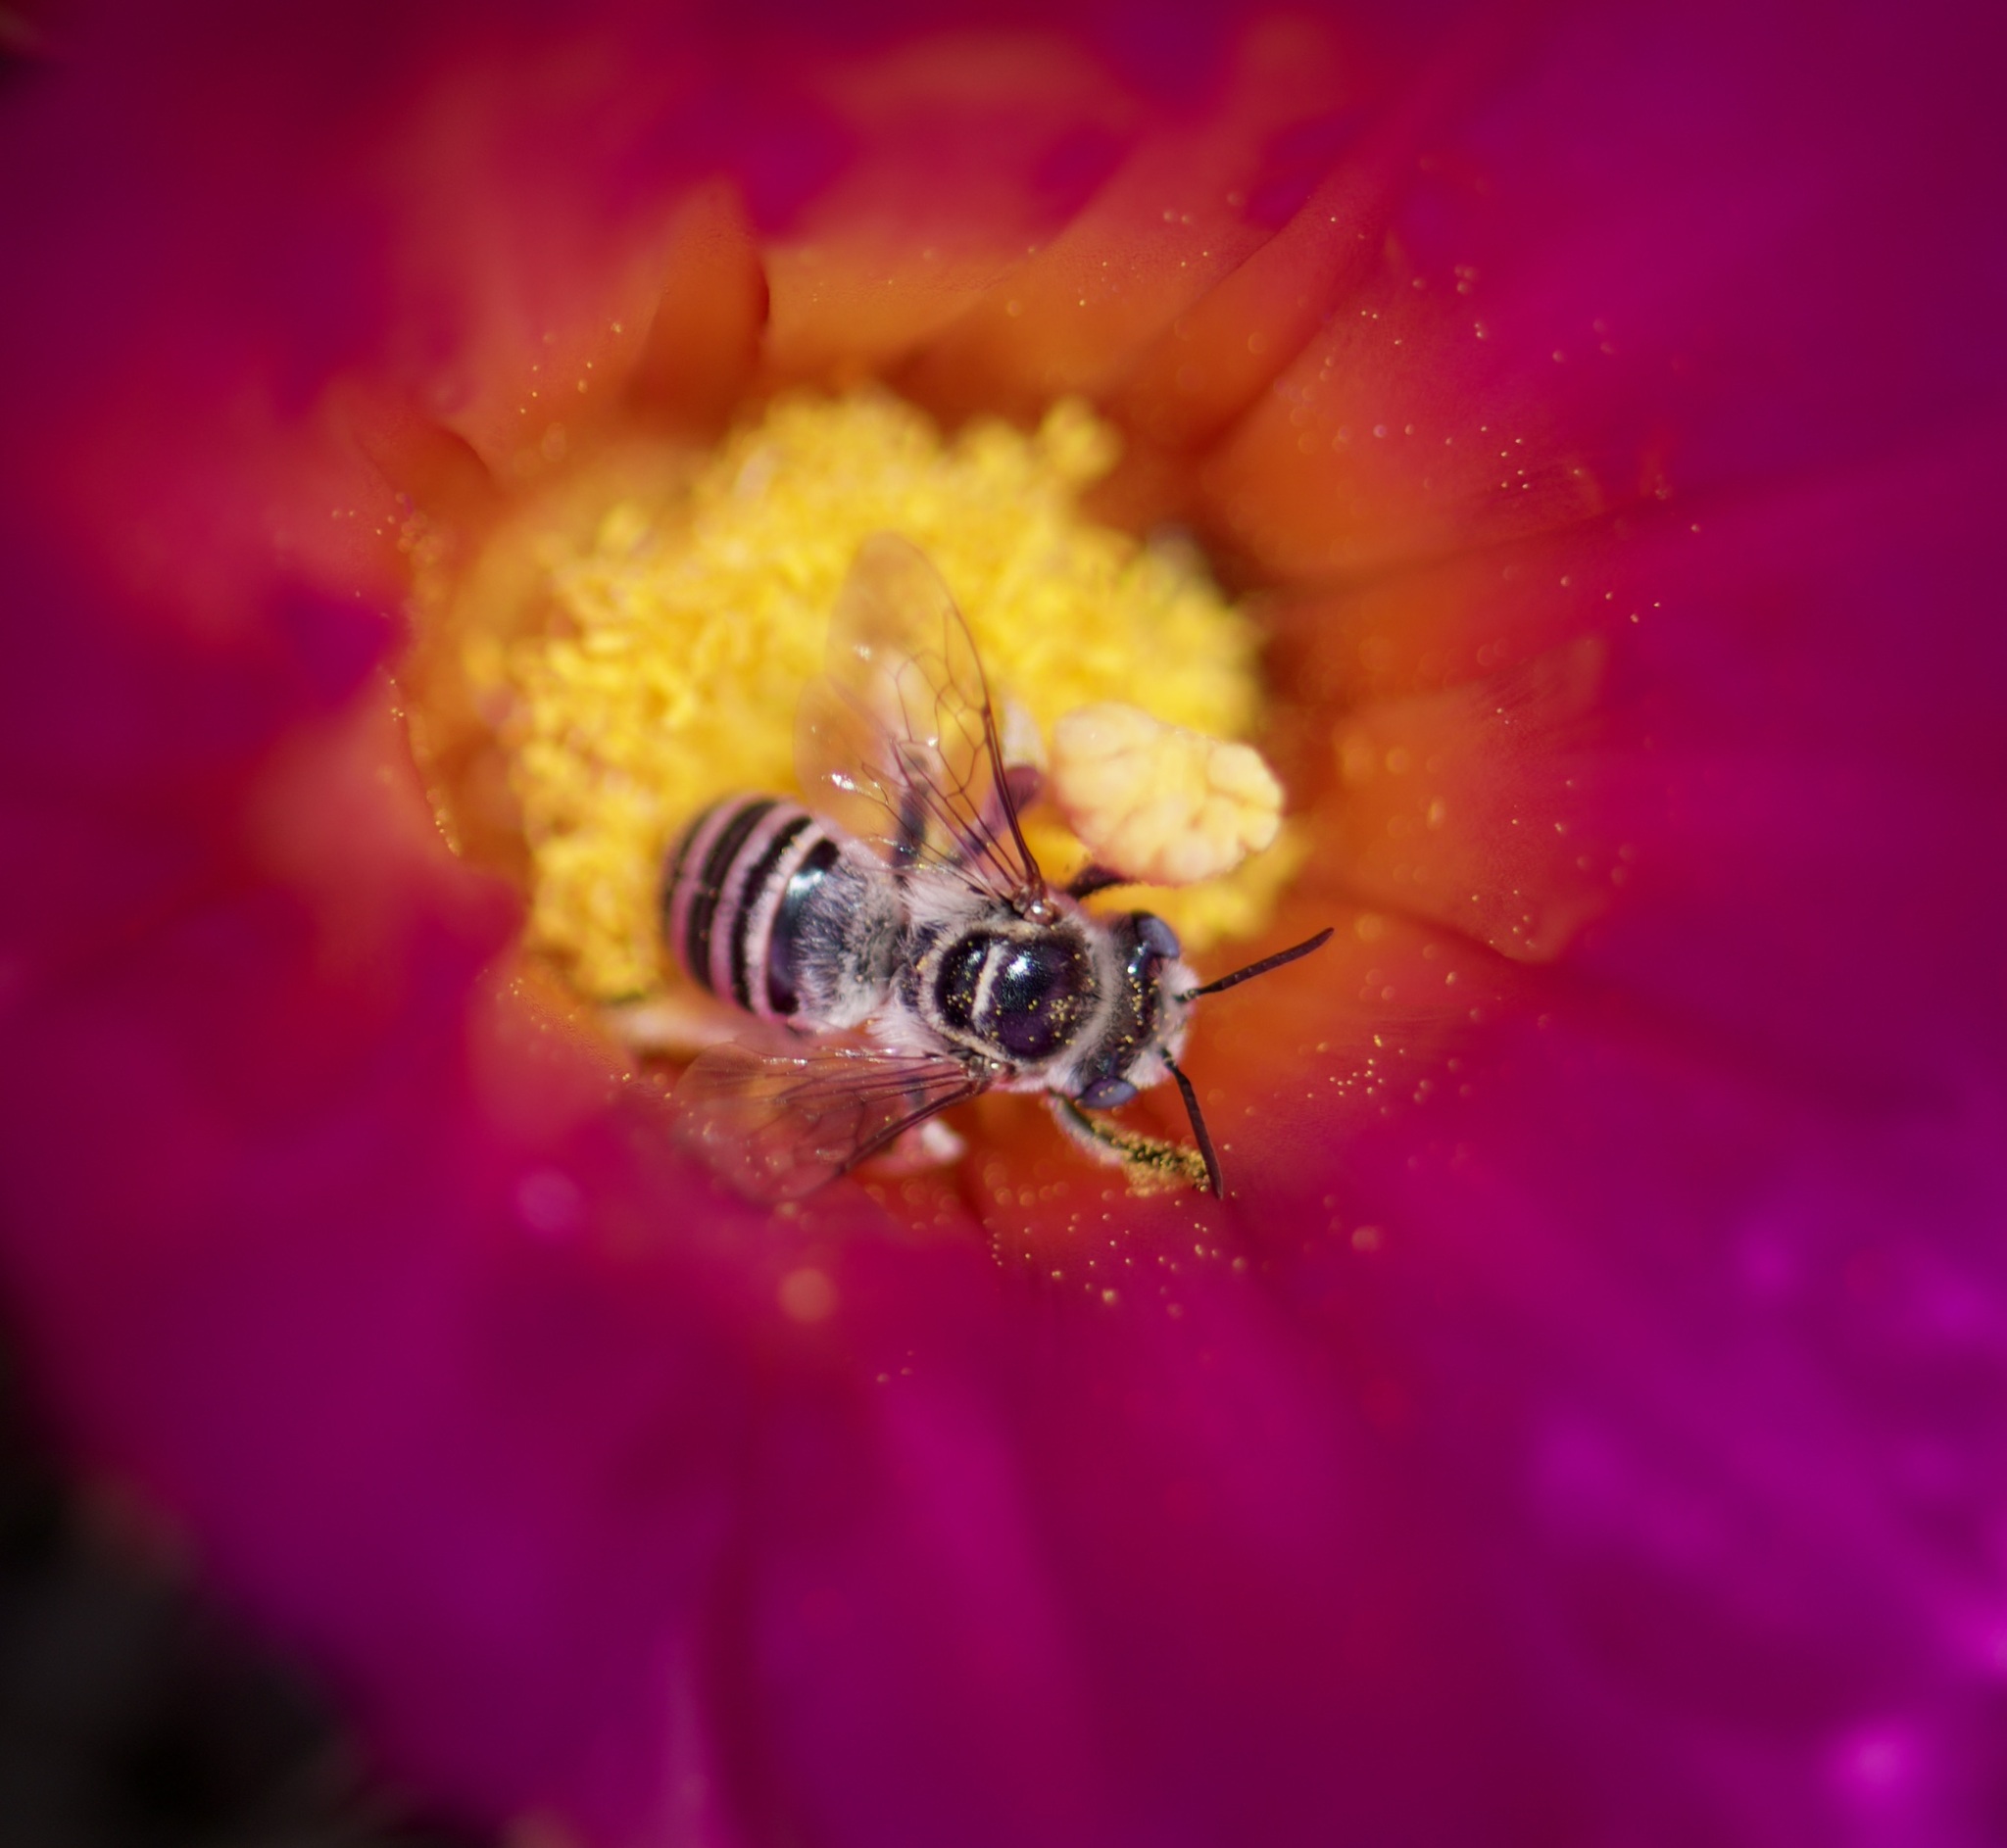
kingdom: Animalia
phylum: Arthropoda
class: Insecta
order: Hymenoptera
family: Apidae
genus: Svastra
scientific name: Svastra duplocincta
